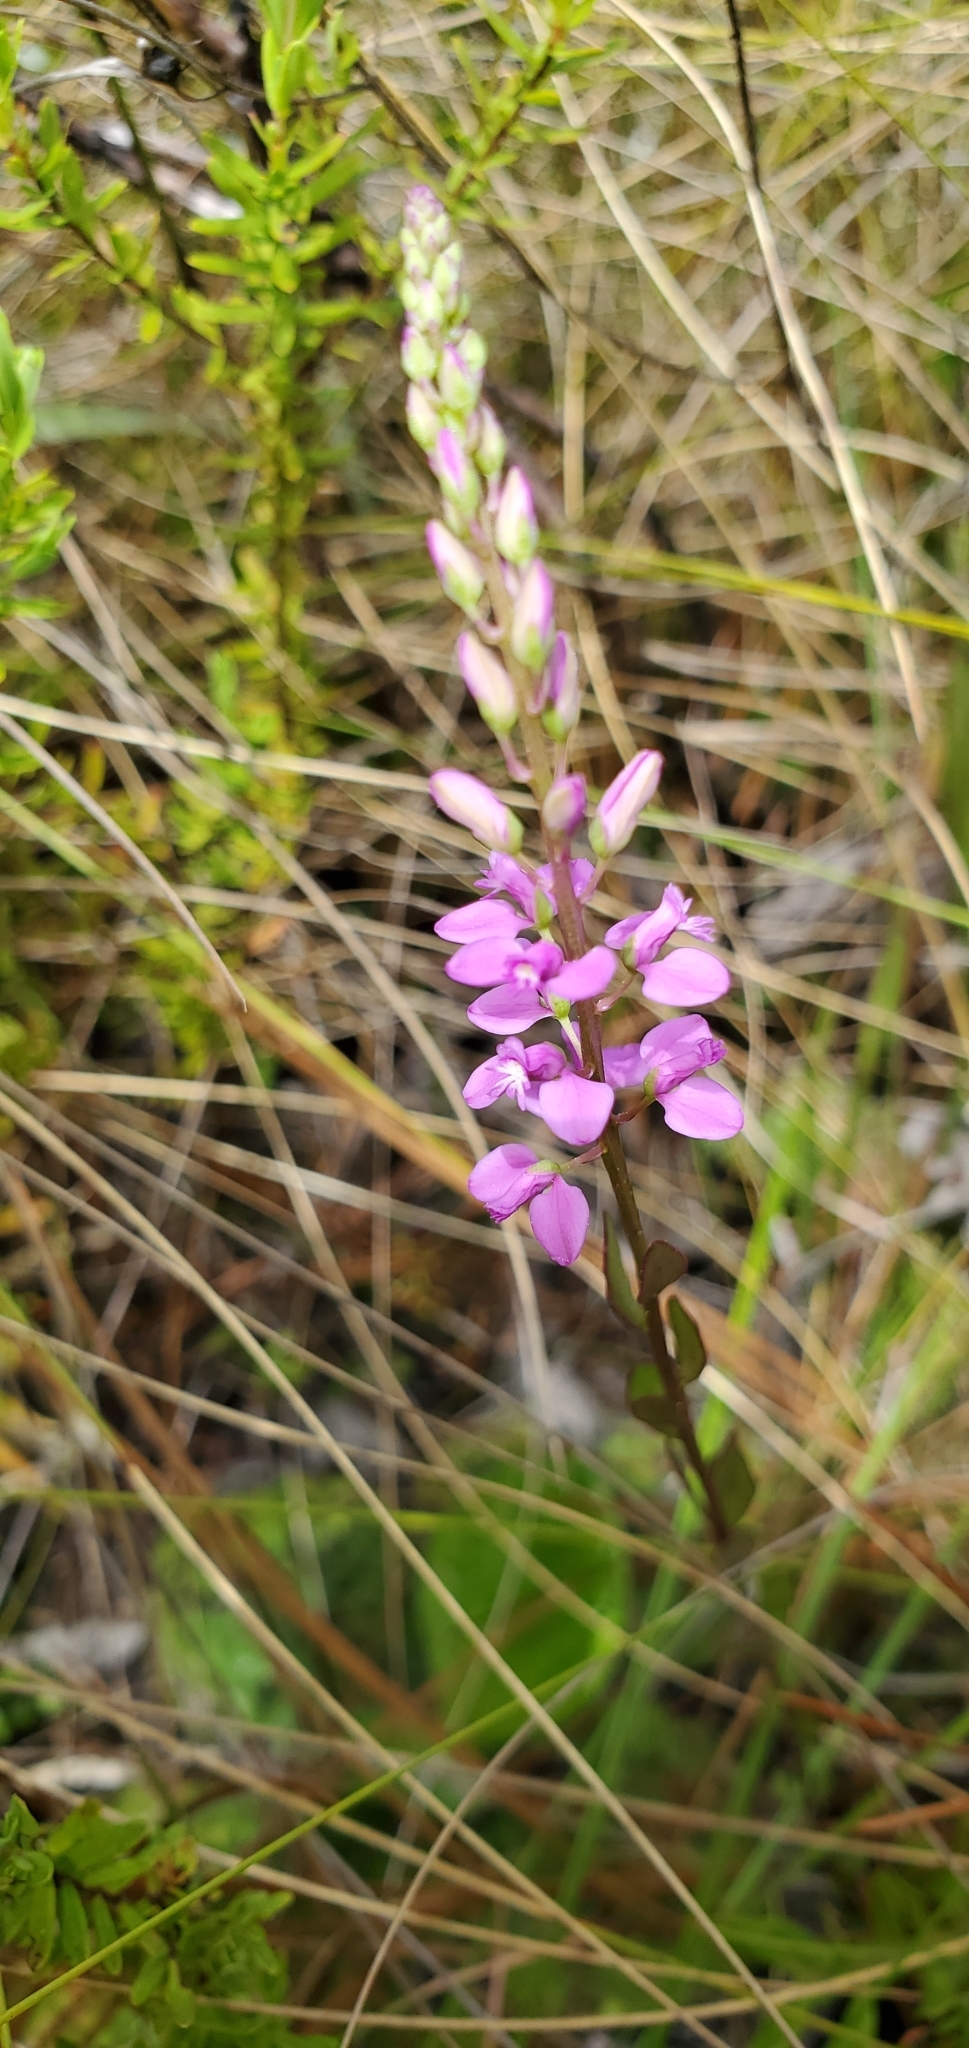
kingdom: Plantae
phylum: Tracheophyta
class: Magnoliopsida
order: Fabales
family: Polygalaceae
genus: Polygala
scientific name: Polygala polygama
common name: Bitter milkwort
